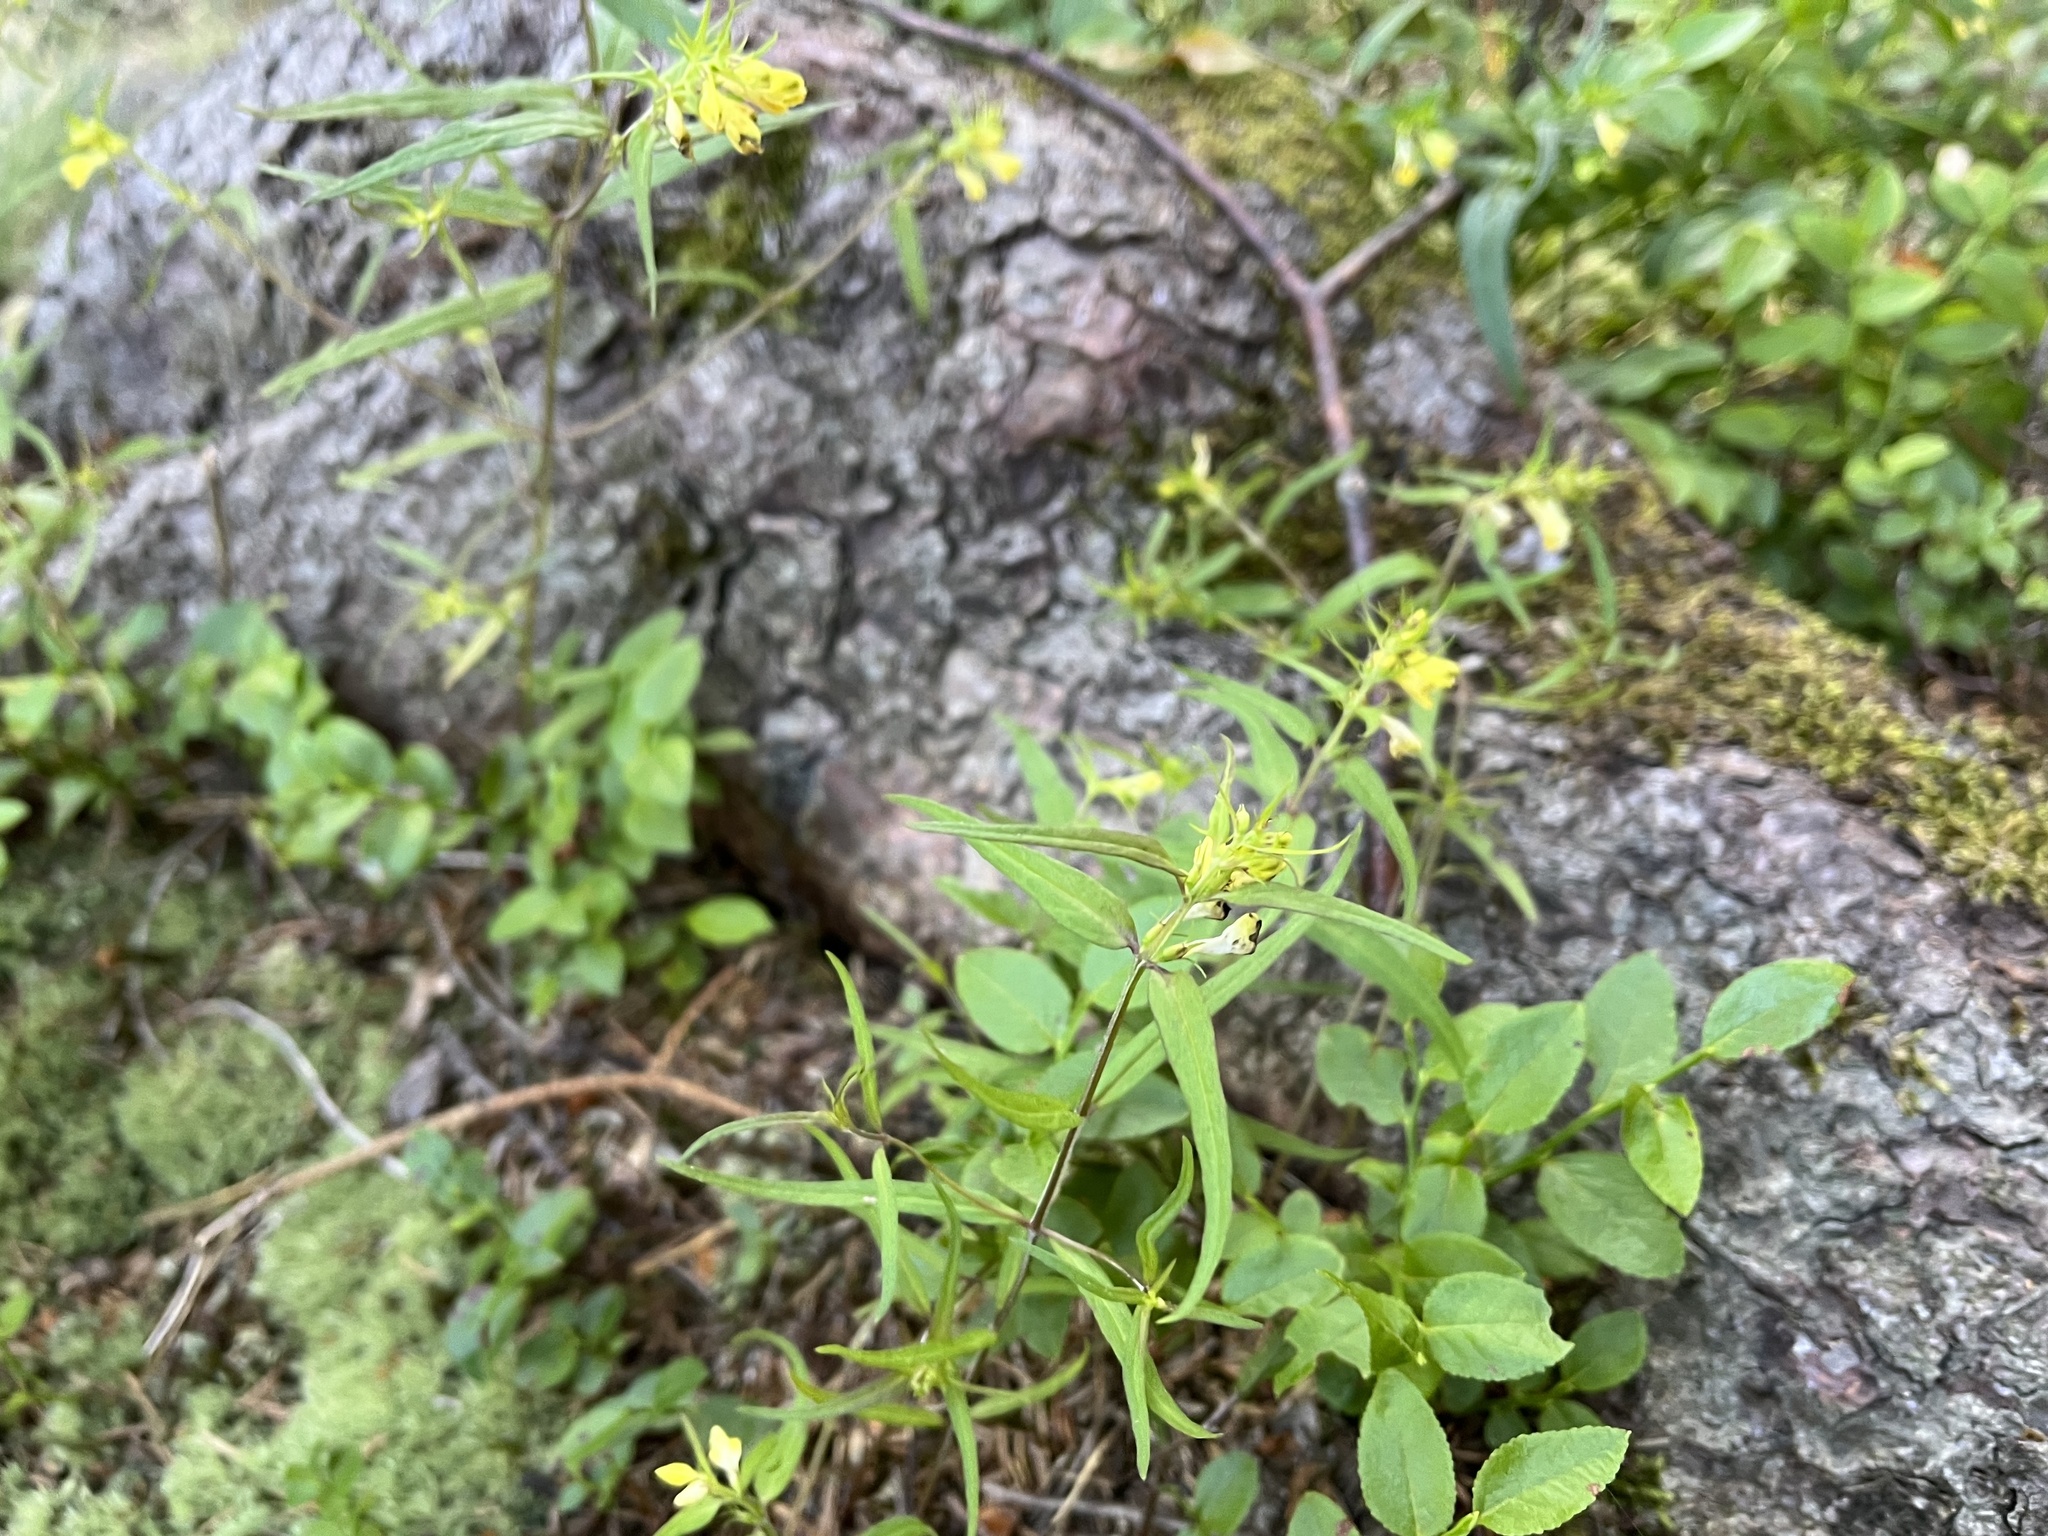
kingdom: Plantae
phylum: Tracheophyta
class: Magnoliopsida
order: Lamiales
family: Orobanchaceae
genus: Melampyrum
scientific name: Melampyrum pratense
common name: Common cow-wheat
